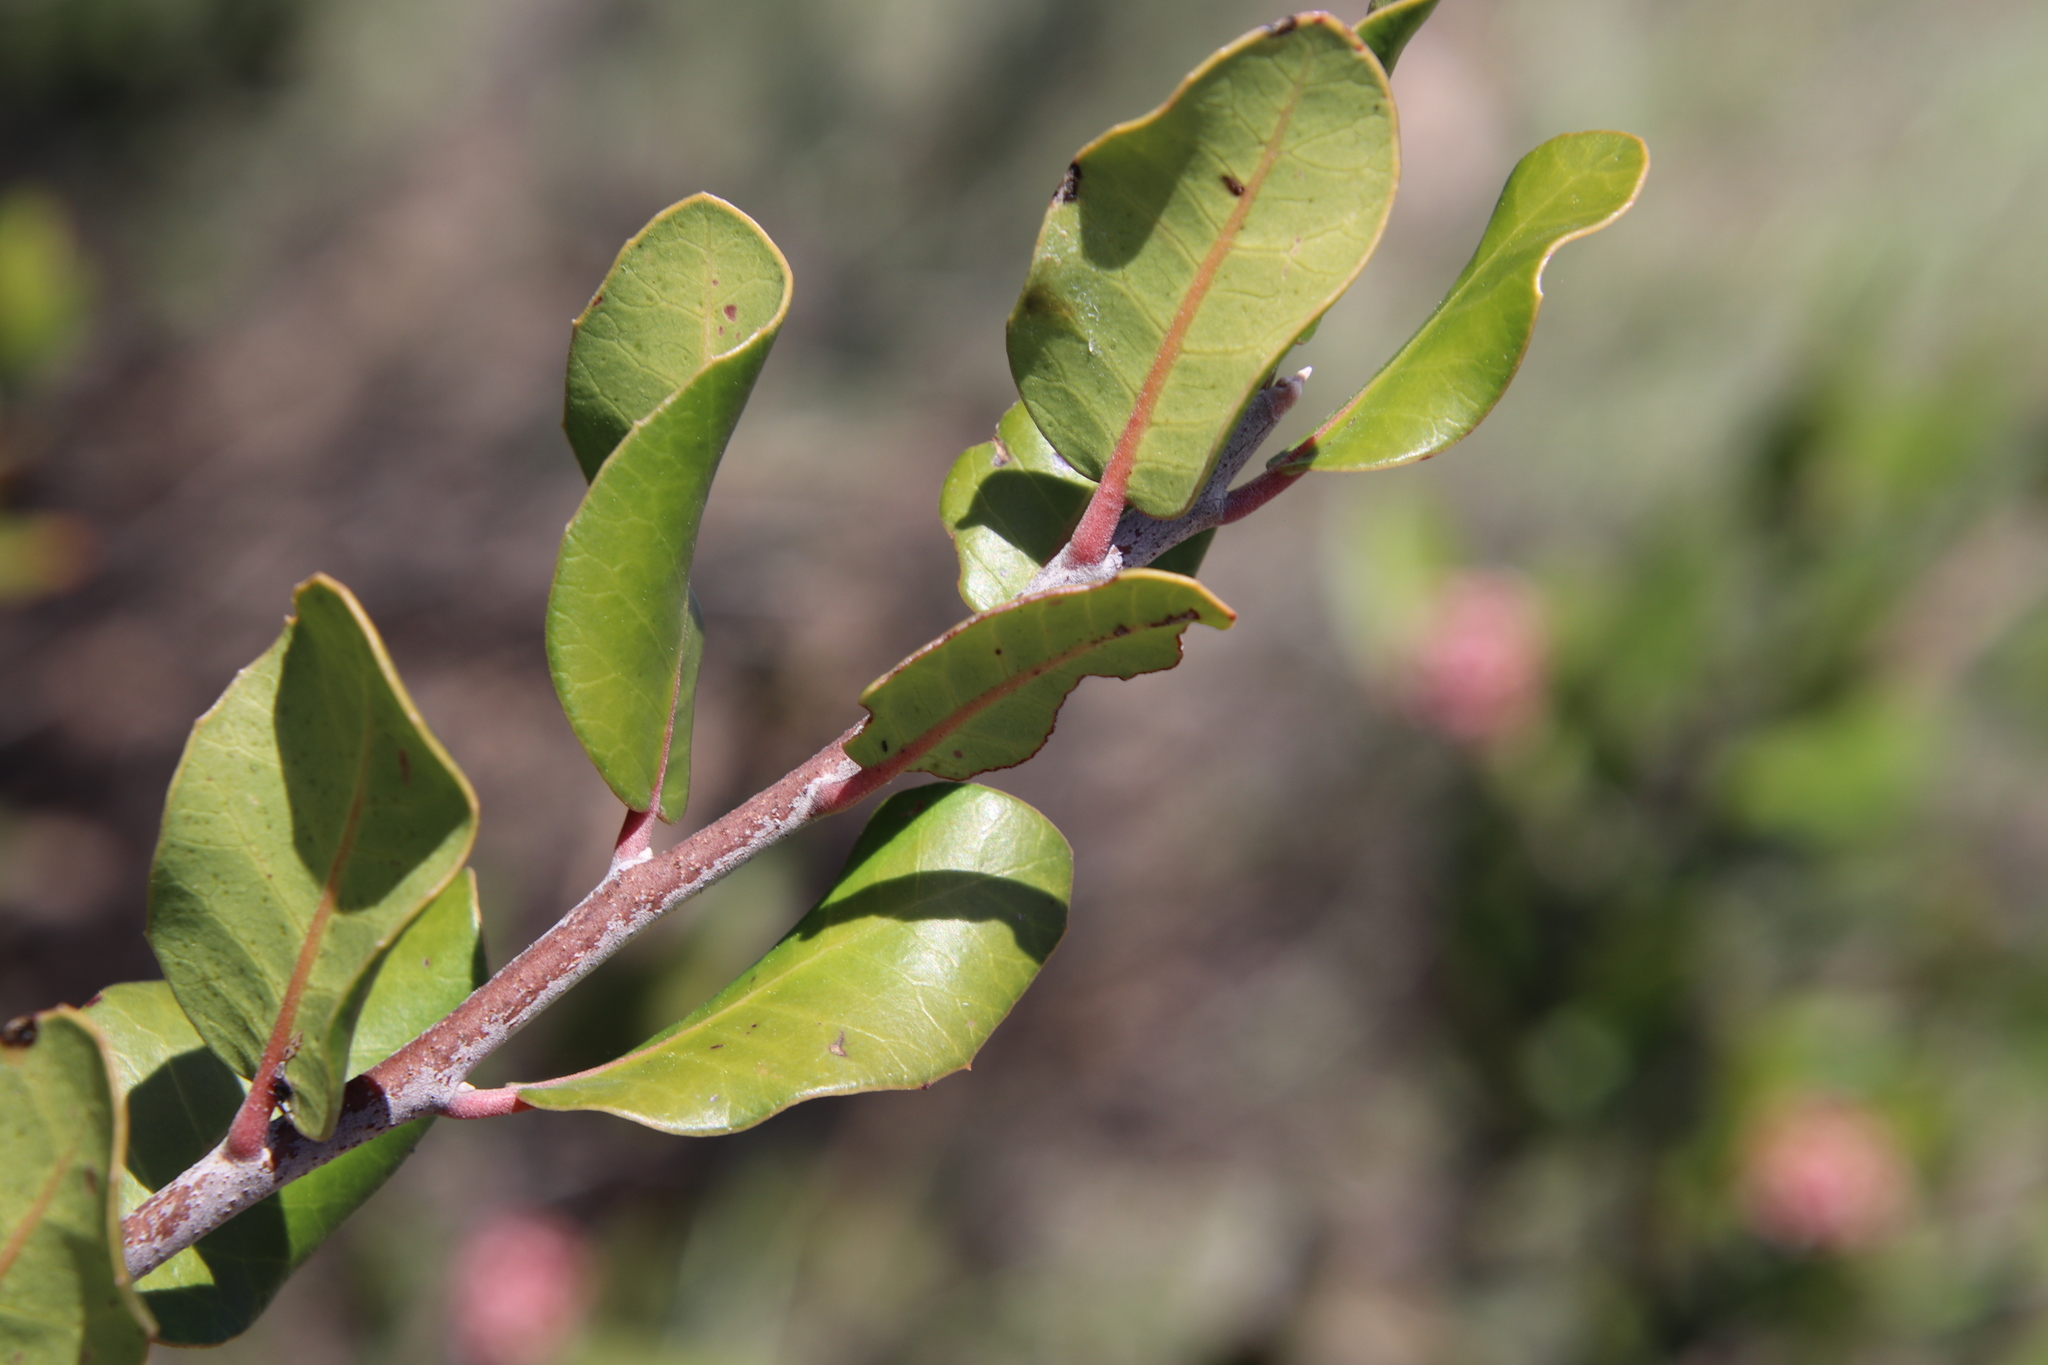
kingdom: Plantae
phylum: Tracheophyta
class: Magnoliopsida
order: Sapindales
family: Anacardiaceae
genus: Rhus
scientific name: Rhus integrifolia
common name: Lemonade sumac
